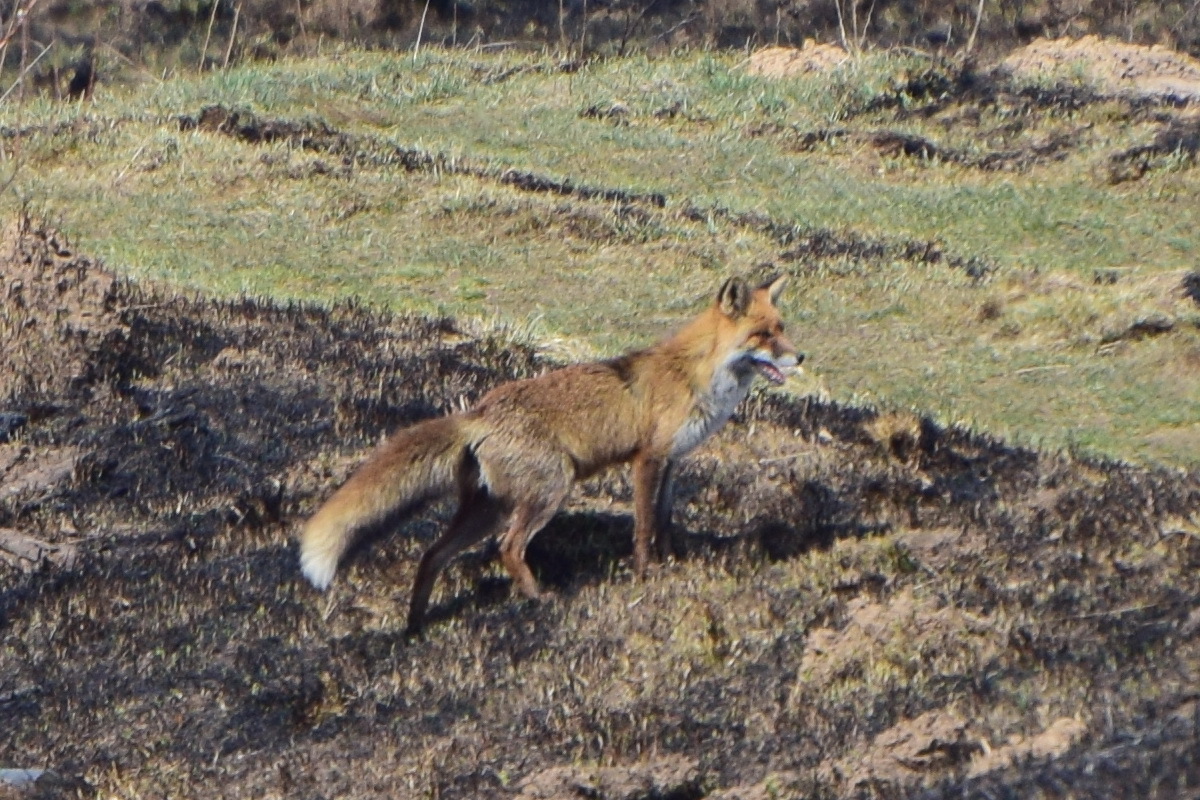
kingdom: Animalia
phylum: Chordata
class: Mammalia
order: Carnivora
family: Canidae
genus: Vulpes
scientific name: Vulpes vulpes
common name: Red fox
